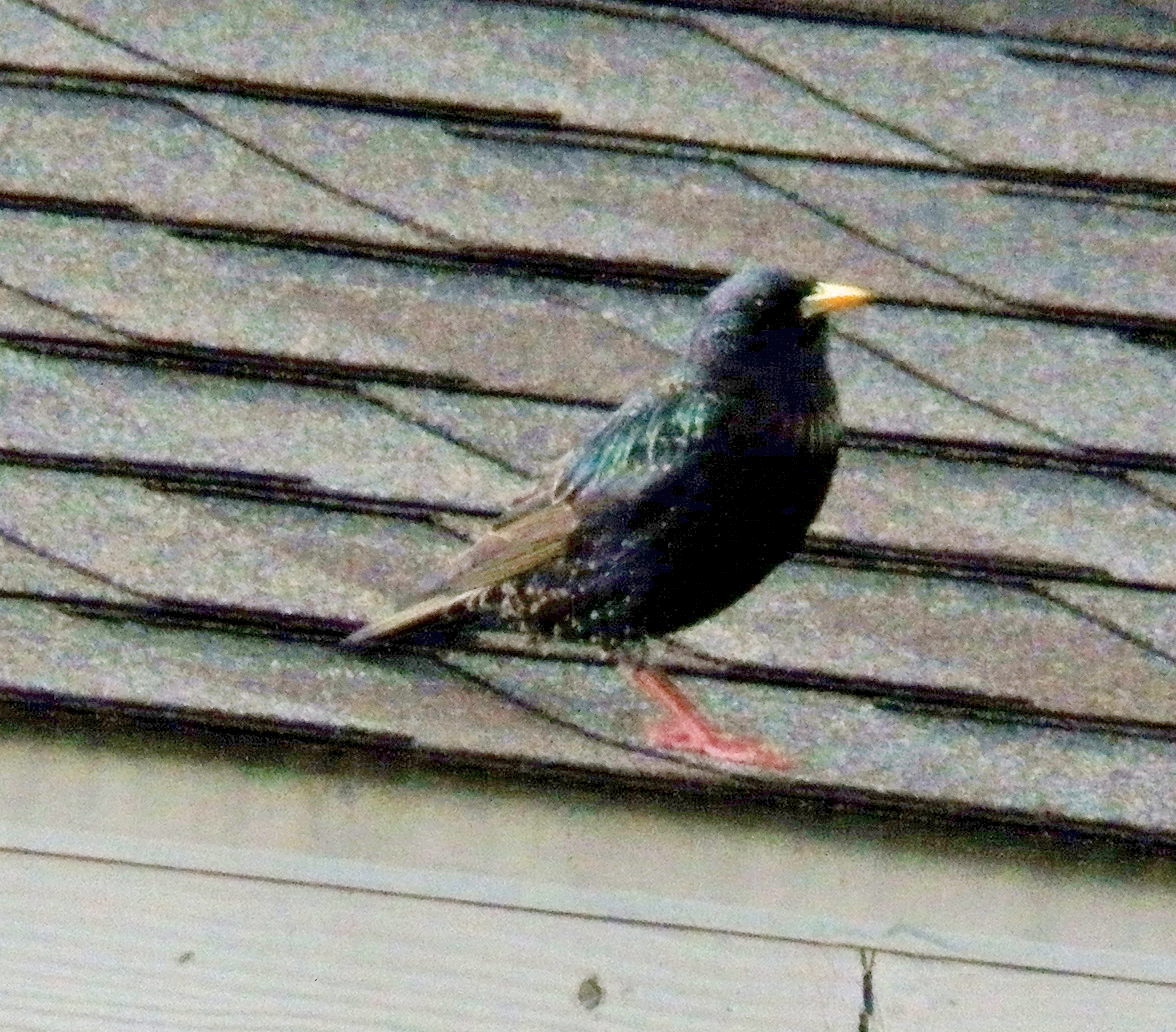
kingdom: Animalia
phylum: Chordata
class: Aves
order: Passeriformes
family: Sturnidae
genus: Sturnus
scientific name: Sturnus vulgaris
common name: Common starling
